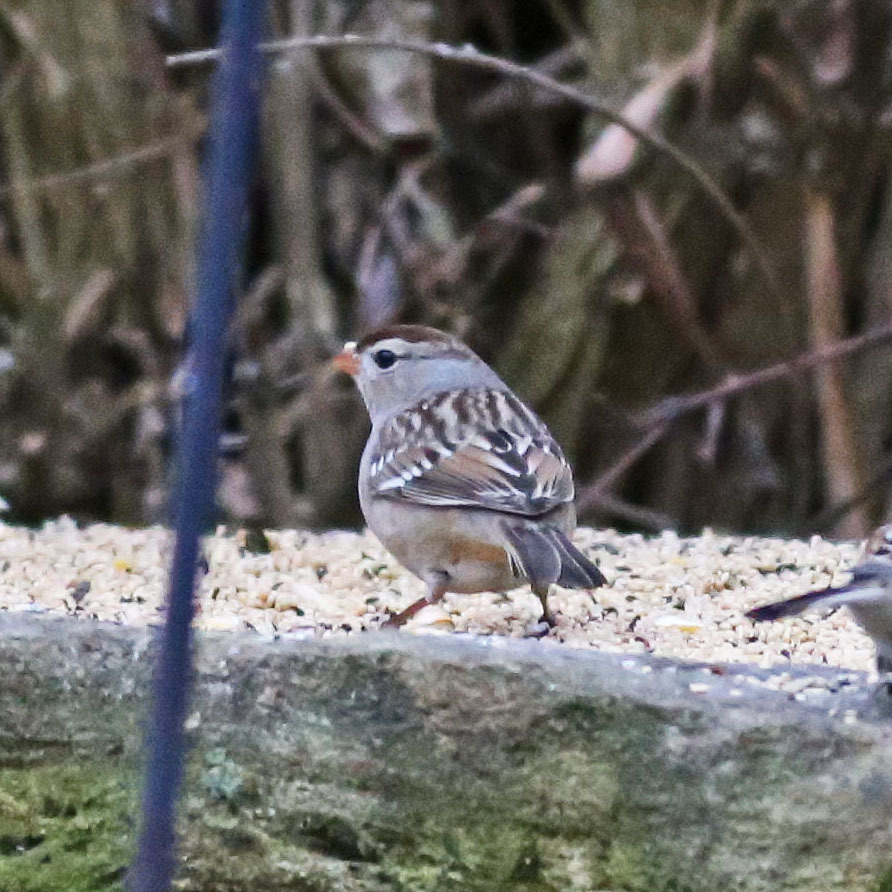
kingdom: Animalia
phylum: Chordata
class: Aves
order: Passeriformes
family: Passerellidae
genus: Zonotrichia
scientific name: Zonotrichia leucophrys
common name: White-crowned sparrow
